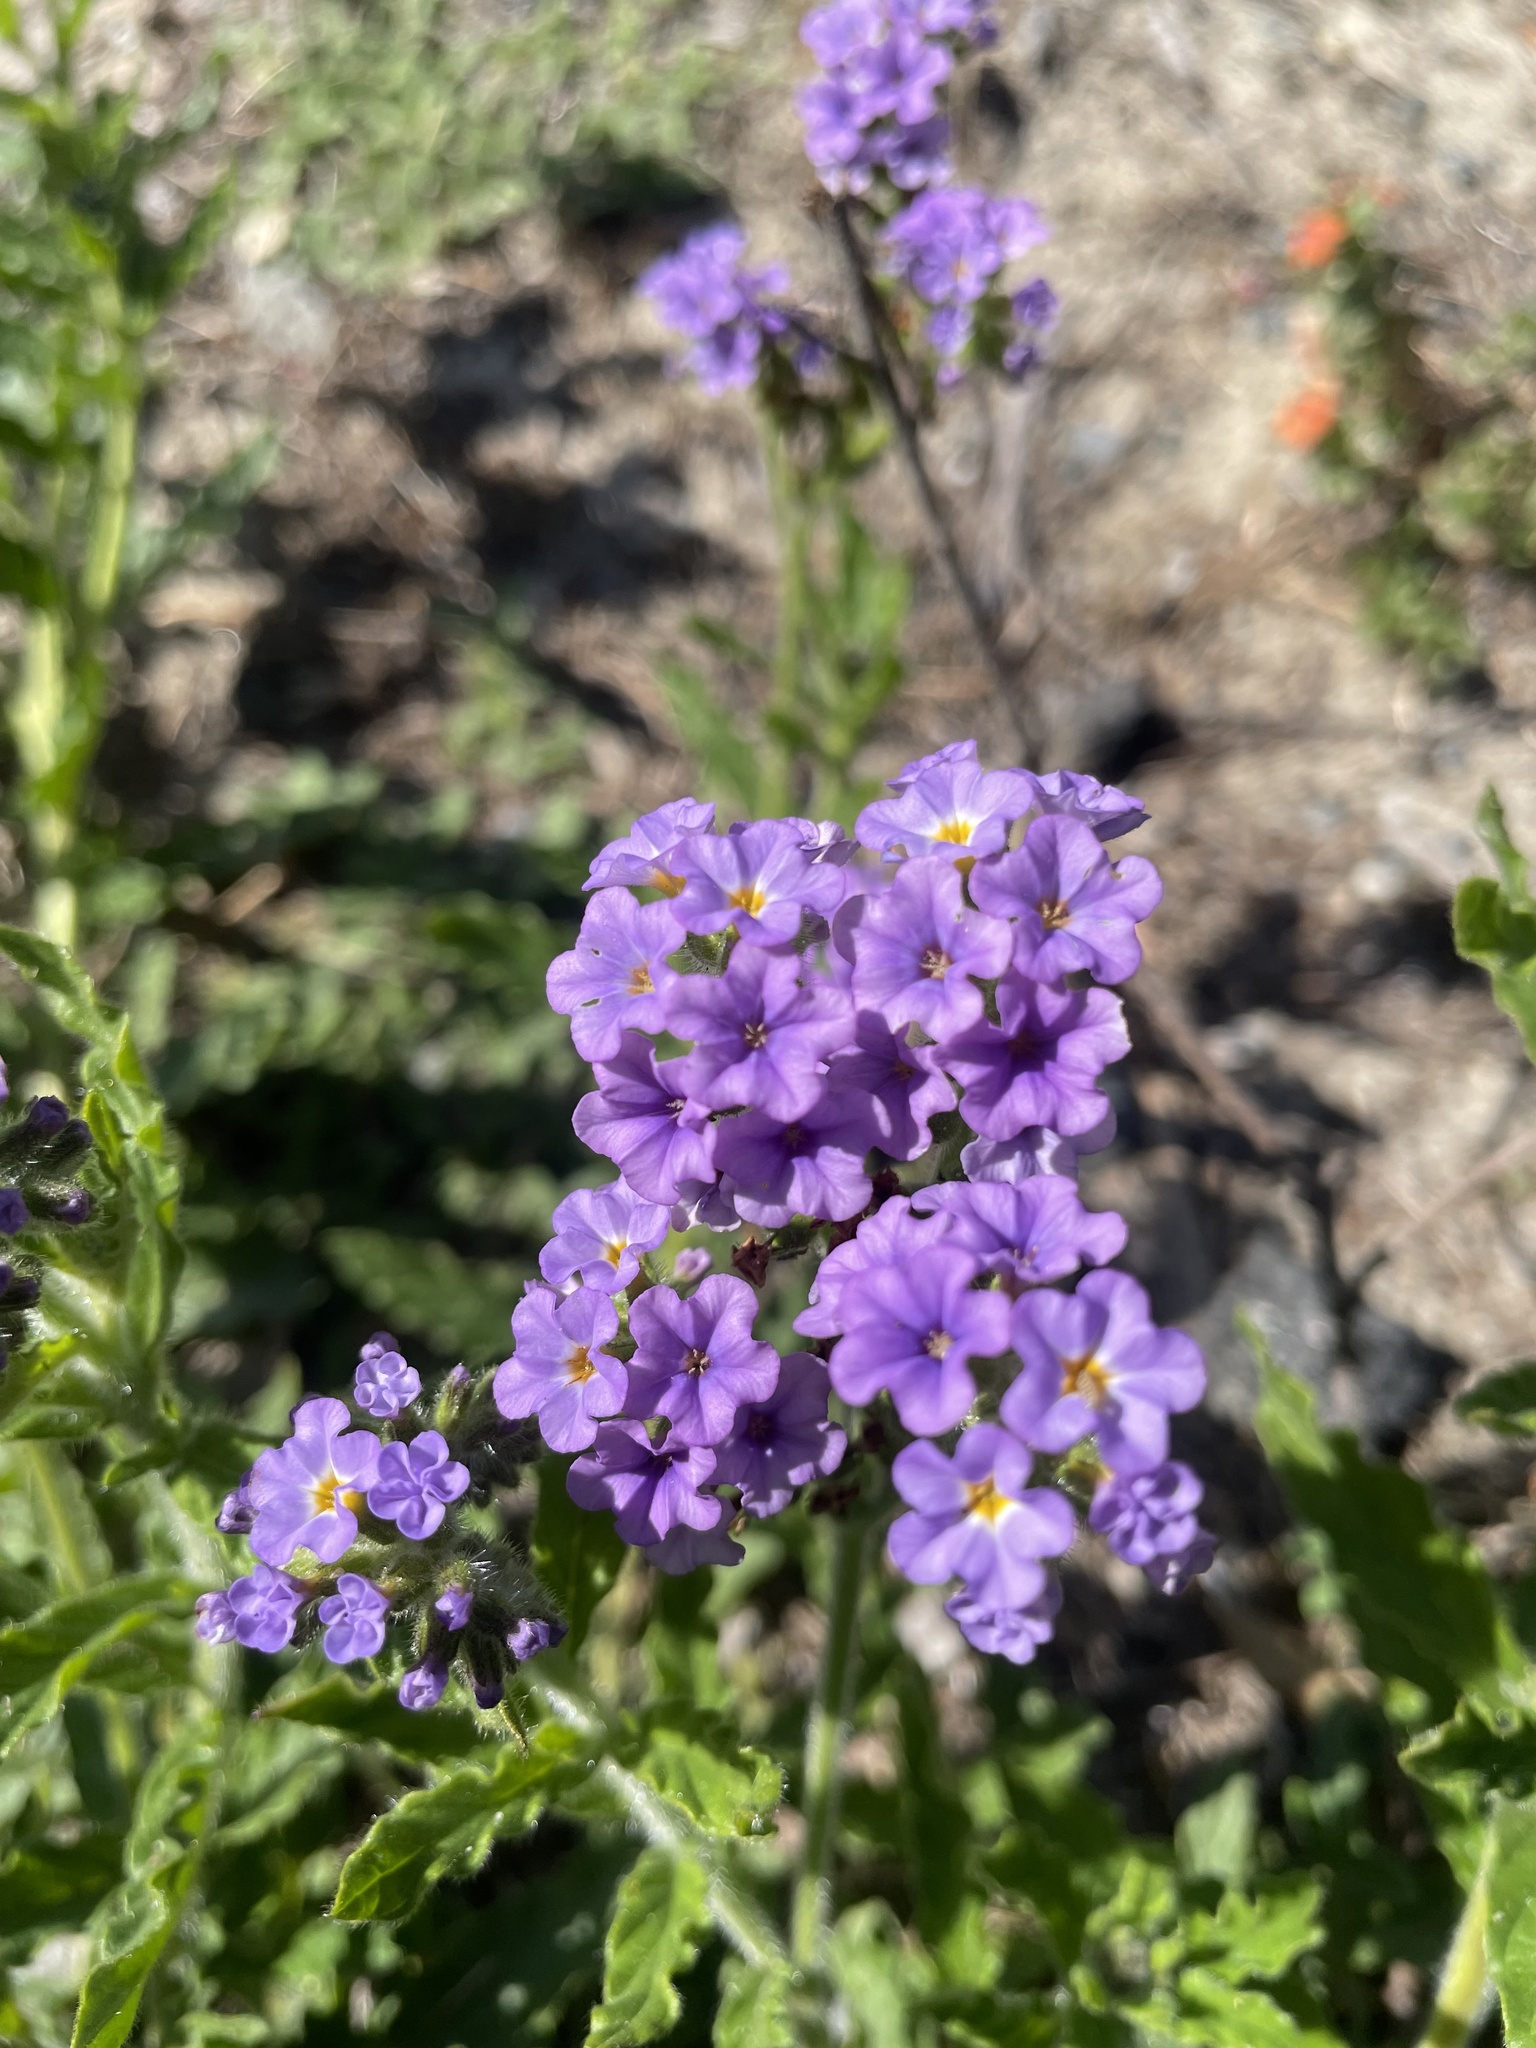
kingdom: Plantae
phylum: Tracheophyta
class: Magnoliopsida
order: Boraginales
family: Heliotropiaceae
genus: Heliotropium
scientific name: Heliotropium amplexicaule
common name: Clasping heliotrope
